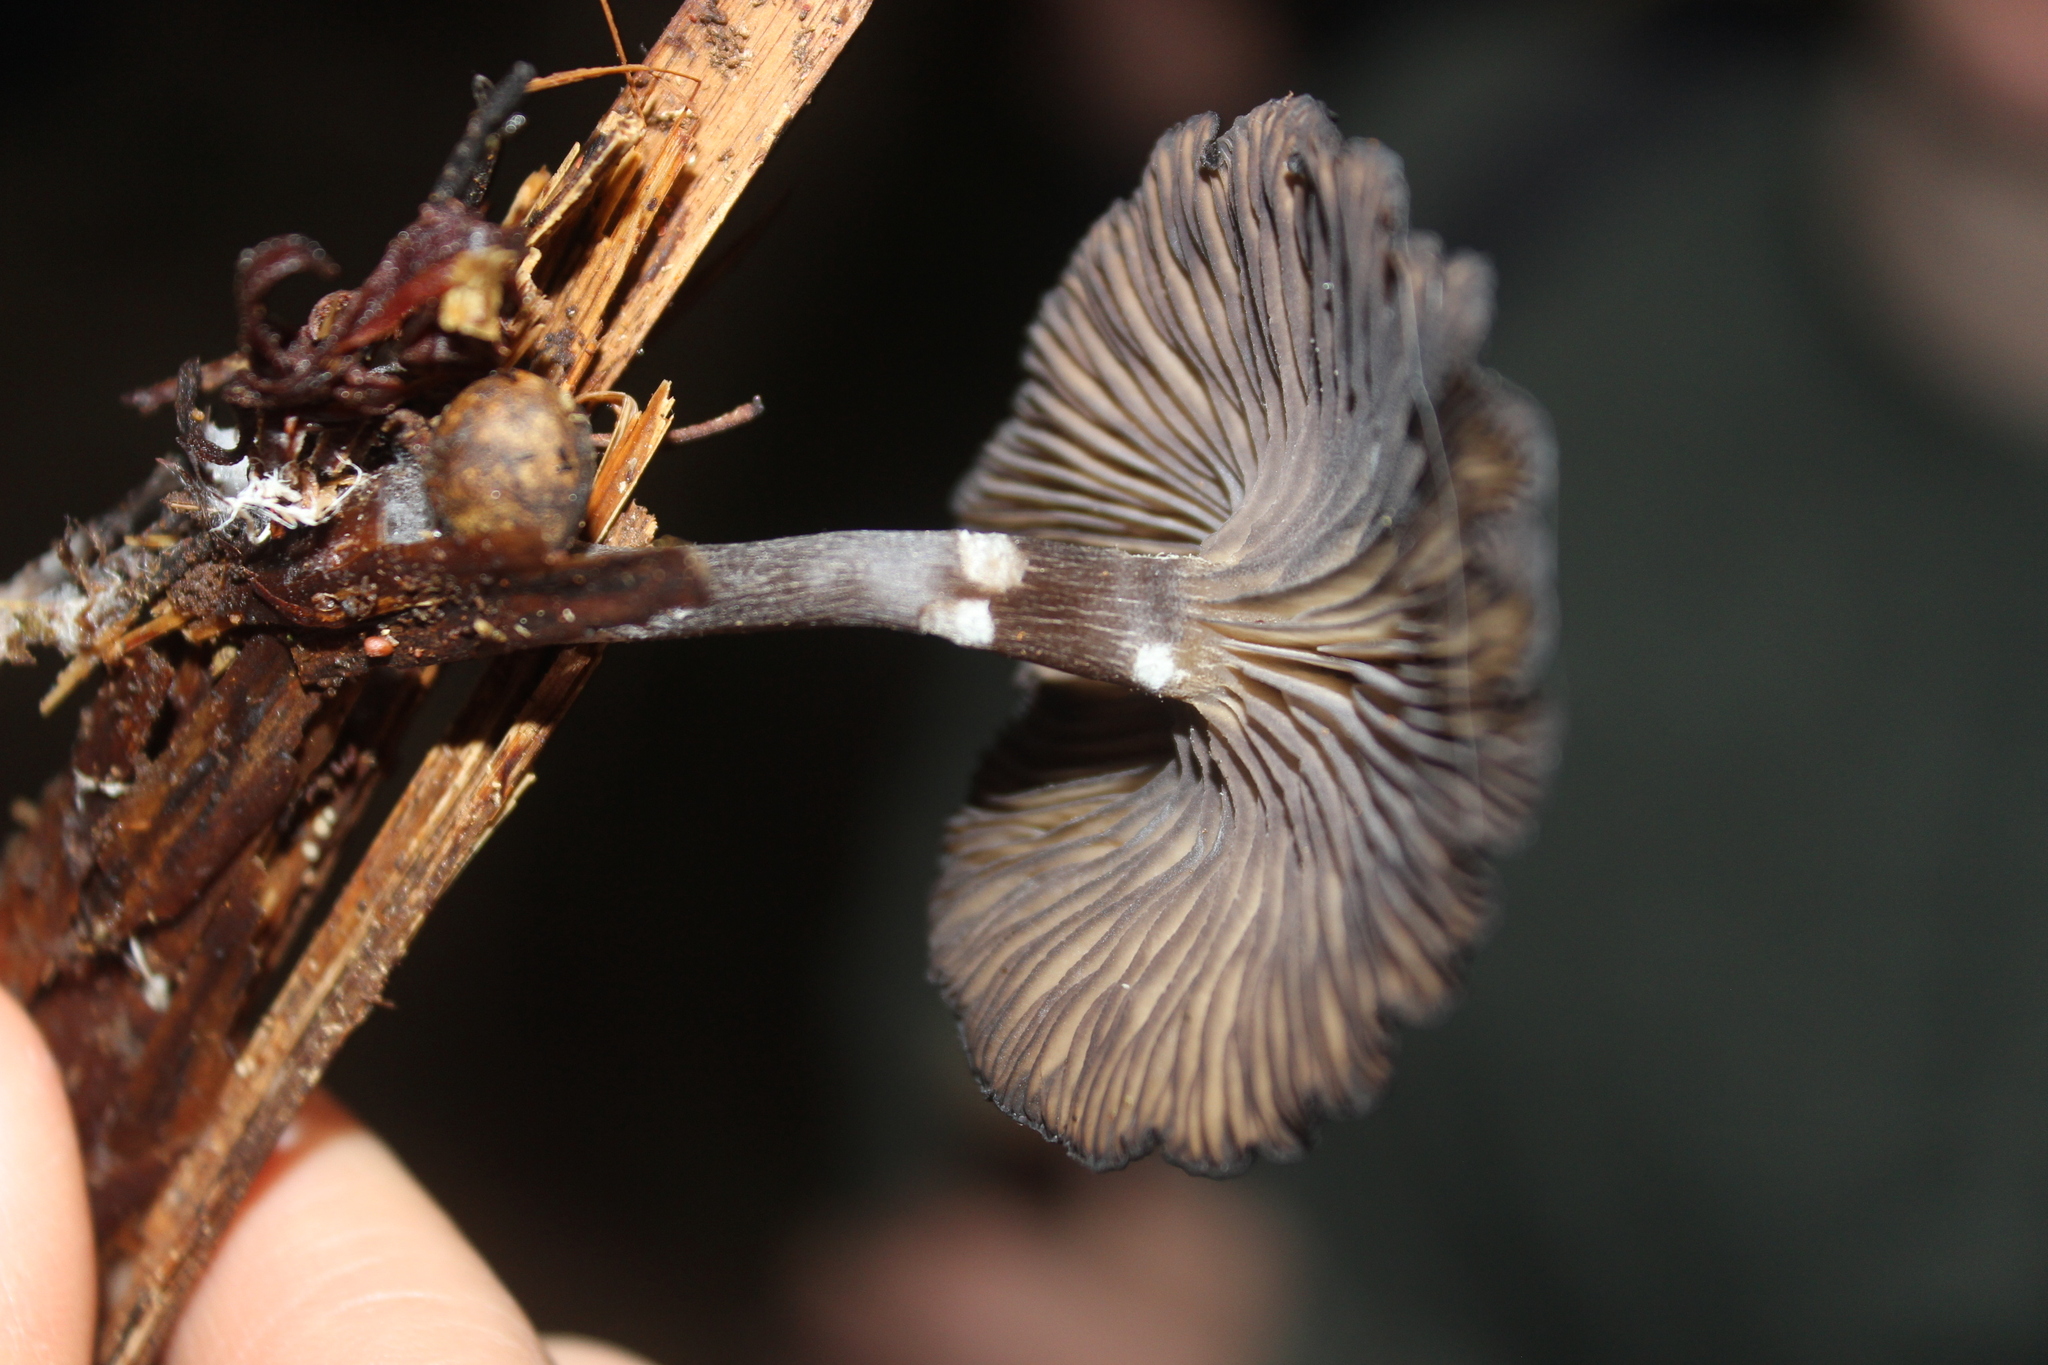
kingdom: Fungi
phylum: Basidiomycota
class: Agaricomycetes
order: Agaricales
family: Pseudoclitocybaceae
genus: Pseudoclitocybe
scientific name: Pseudoclitocybe foetida
